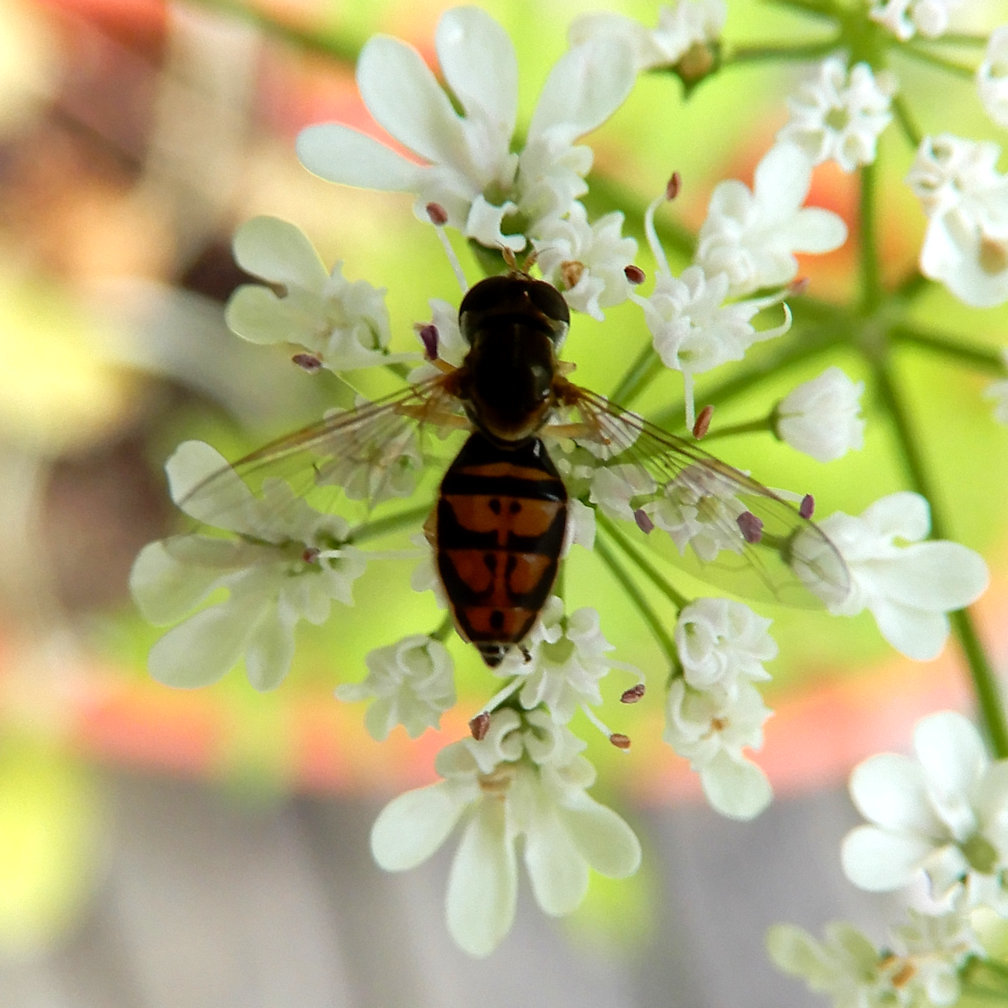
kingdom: Animalia
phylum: Arthropoda
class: Insecta
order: Diptera
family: Syrphidae
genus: Toxomerus
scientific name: Toxomerus marginatus
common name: Syrphid fly
